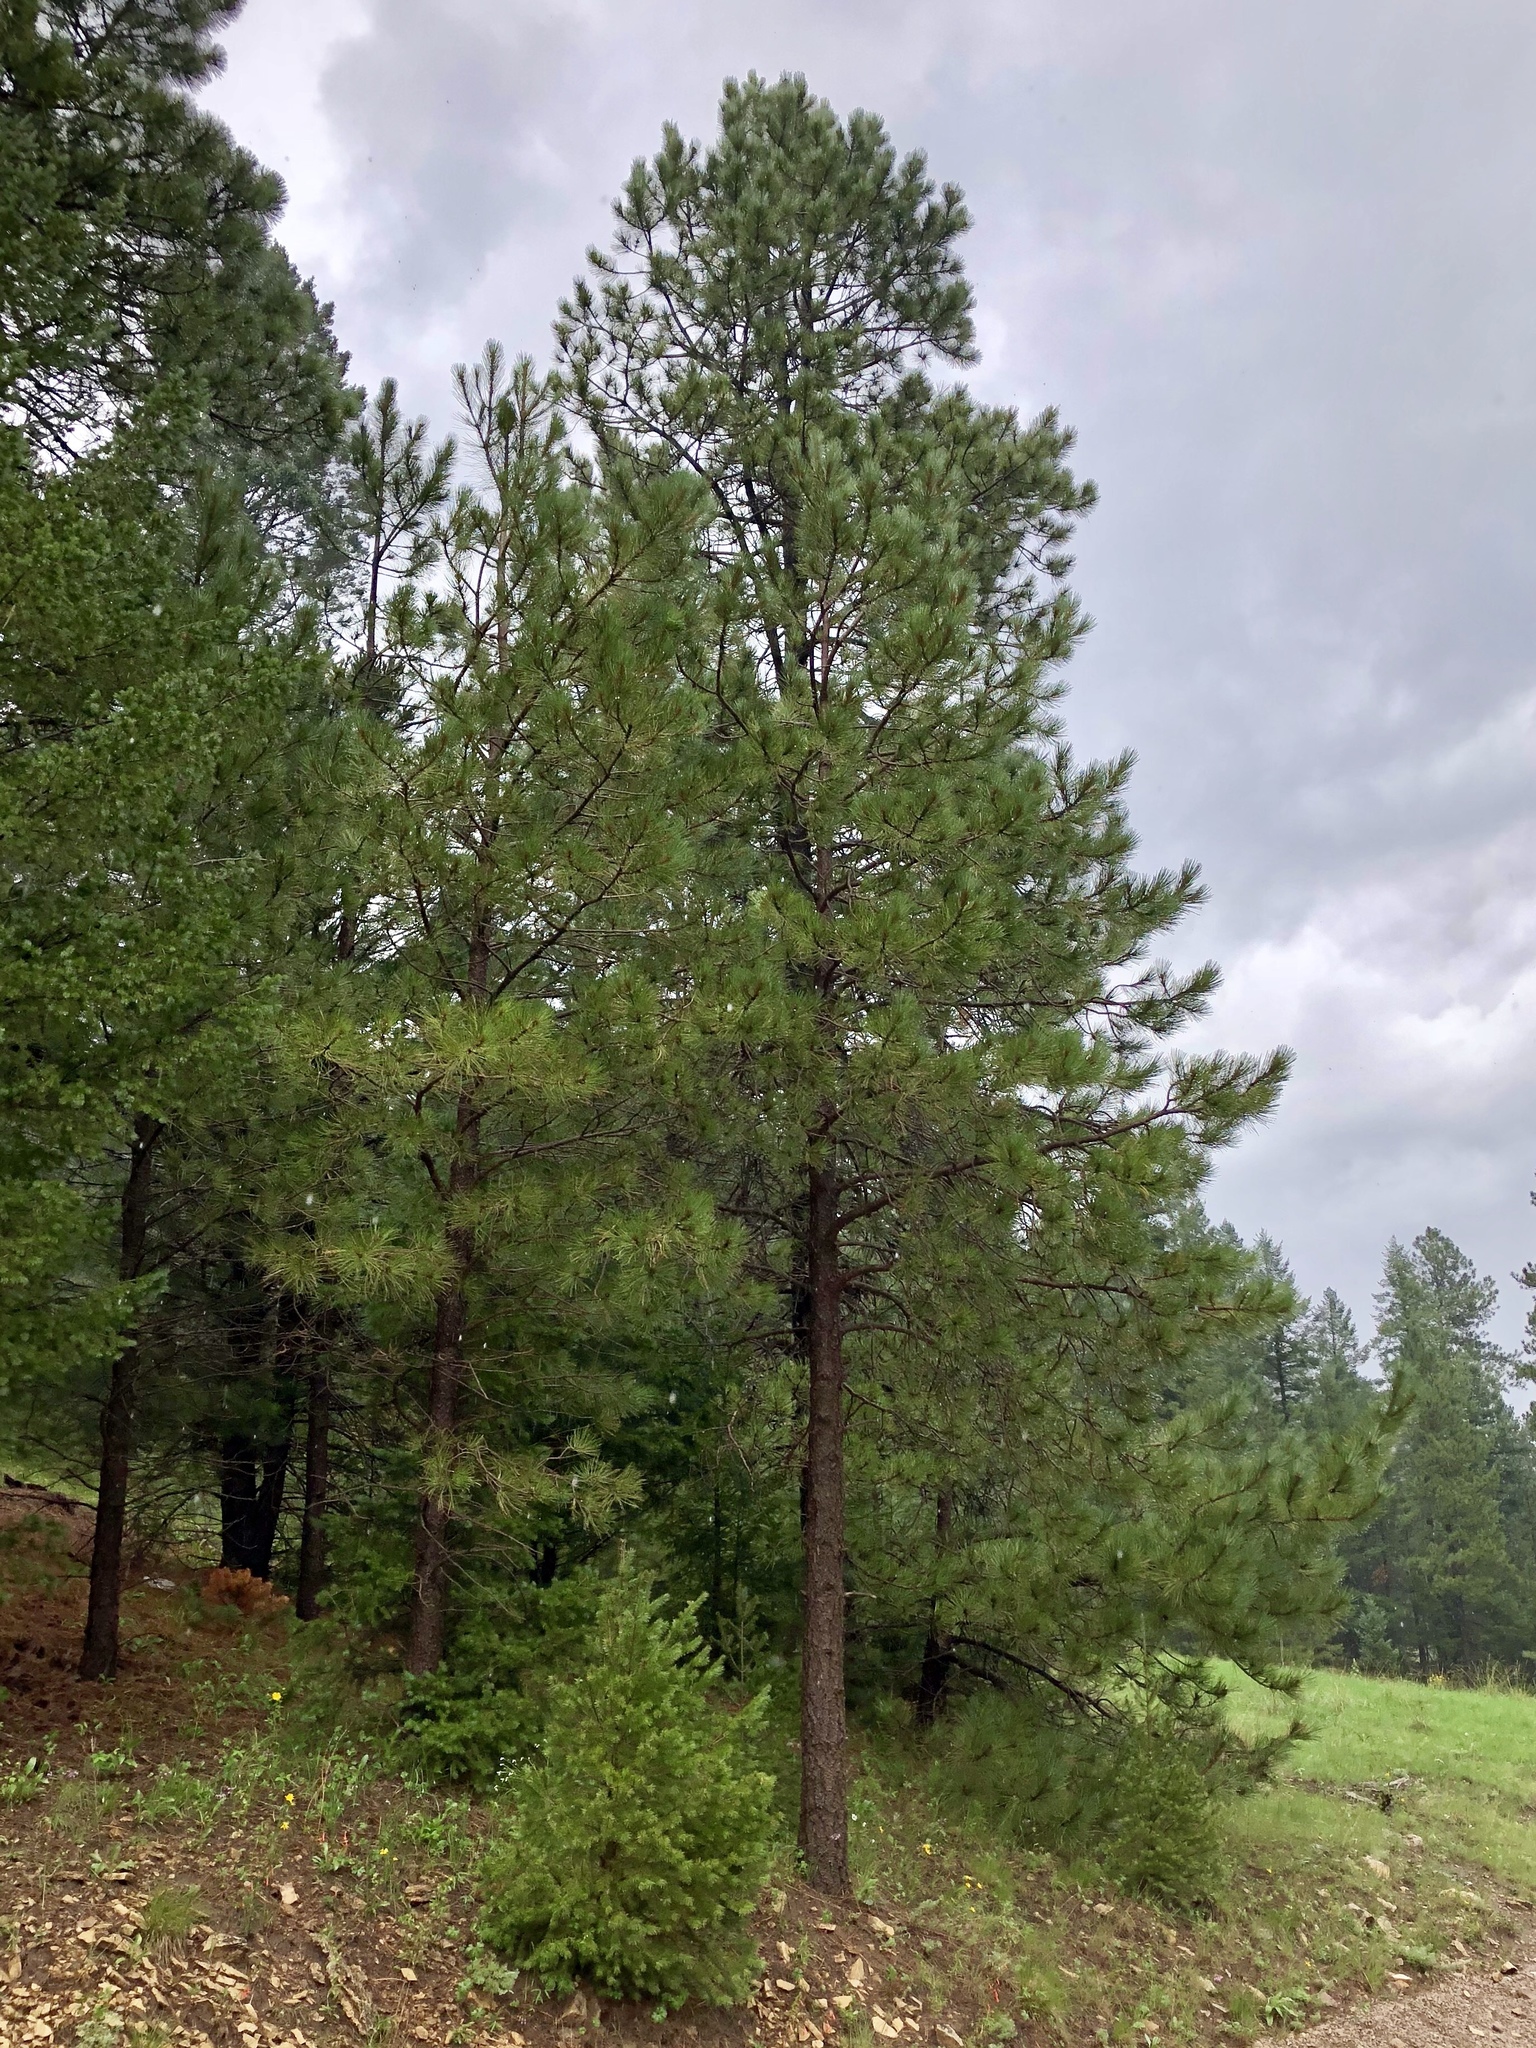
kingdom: Plantae
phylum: Tracheophyta
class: Pinopsida
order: Pinales
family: Pinaceae
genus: Pinus
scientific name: Pinus ponderosa
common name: Western yellow-pine
